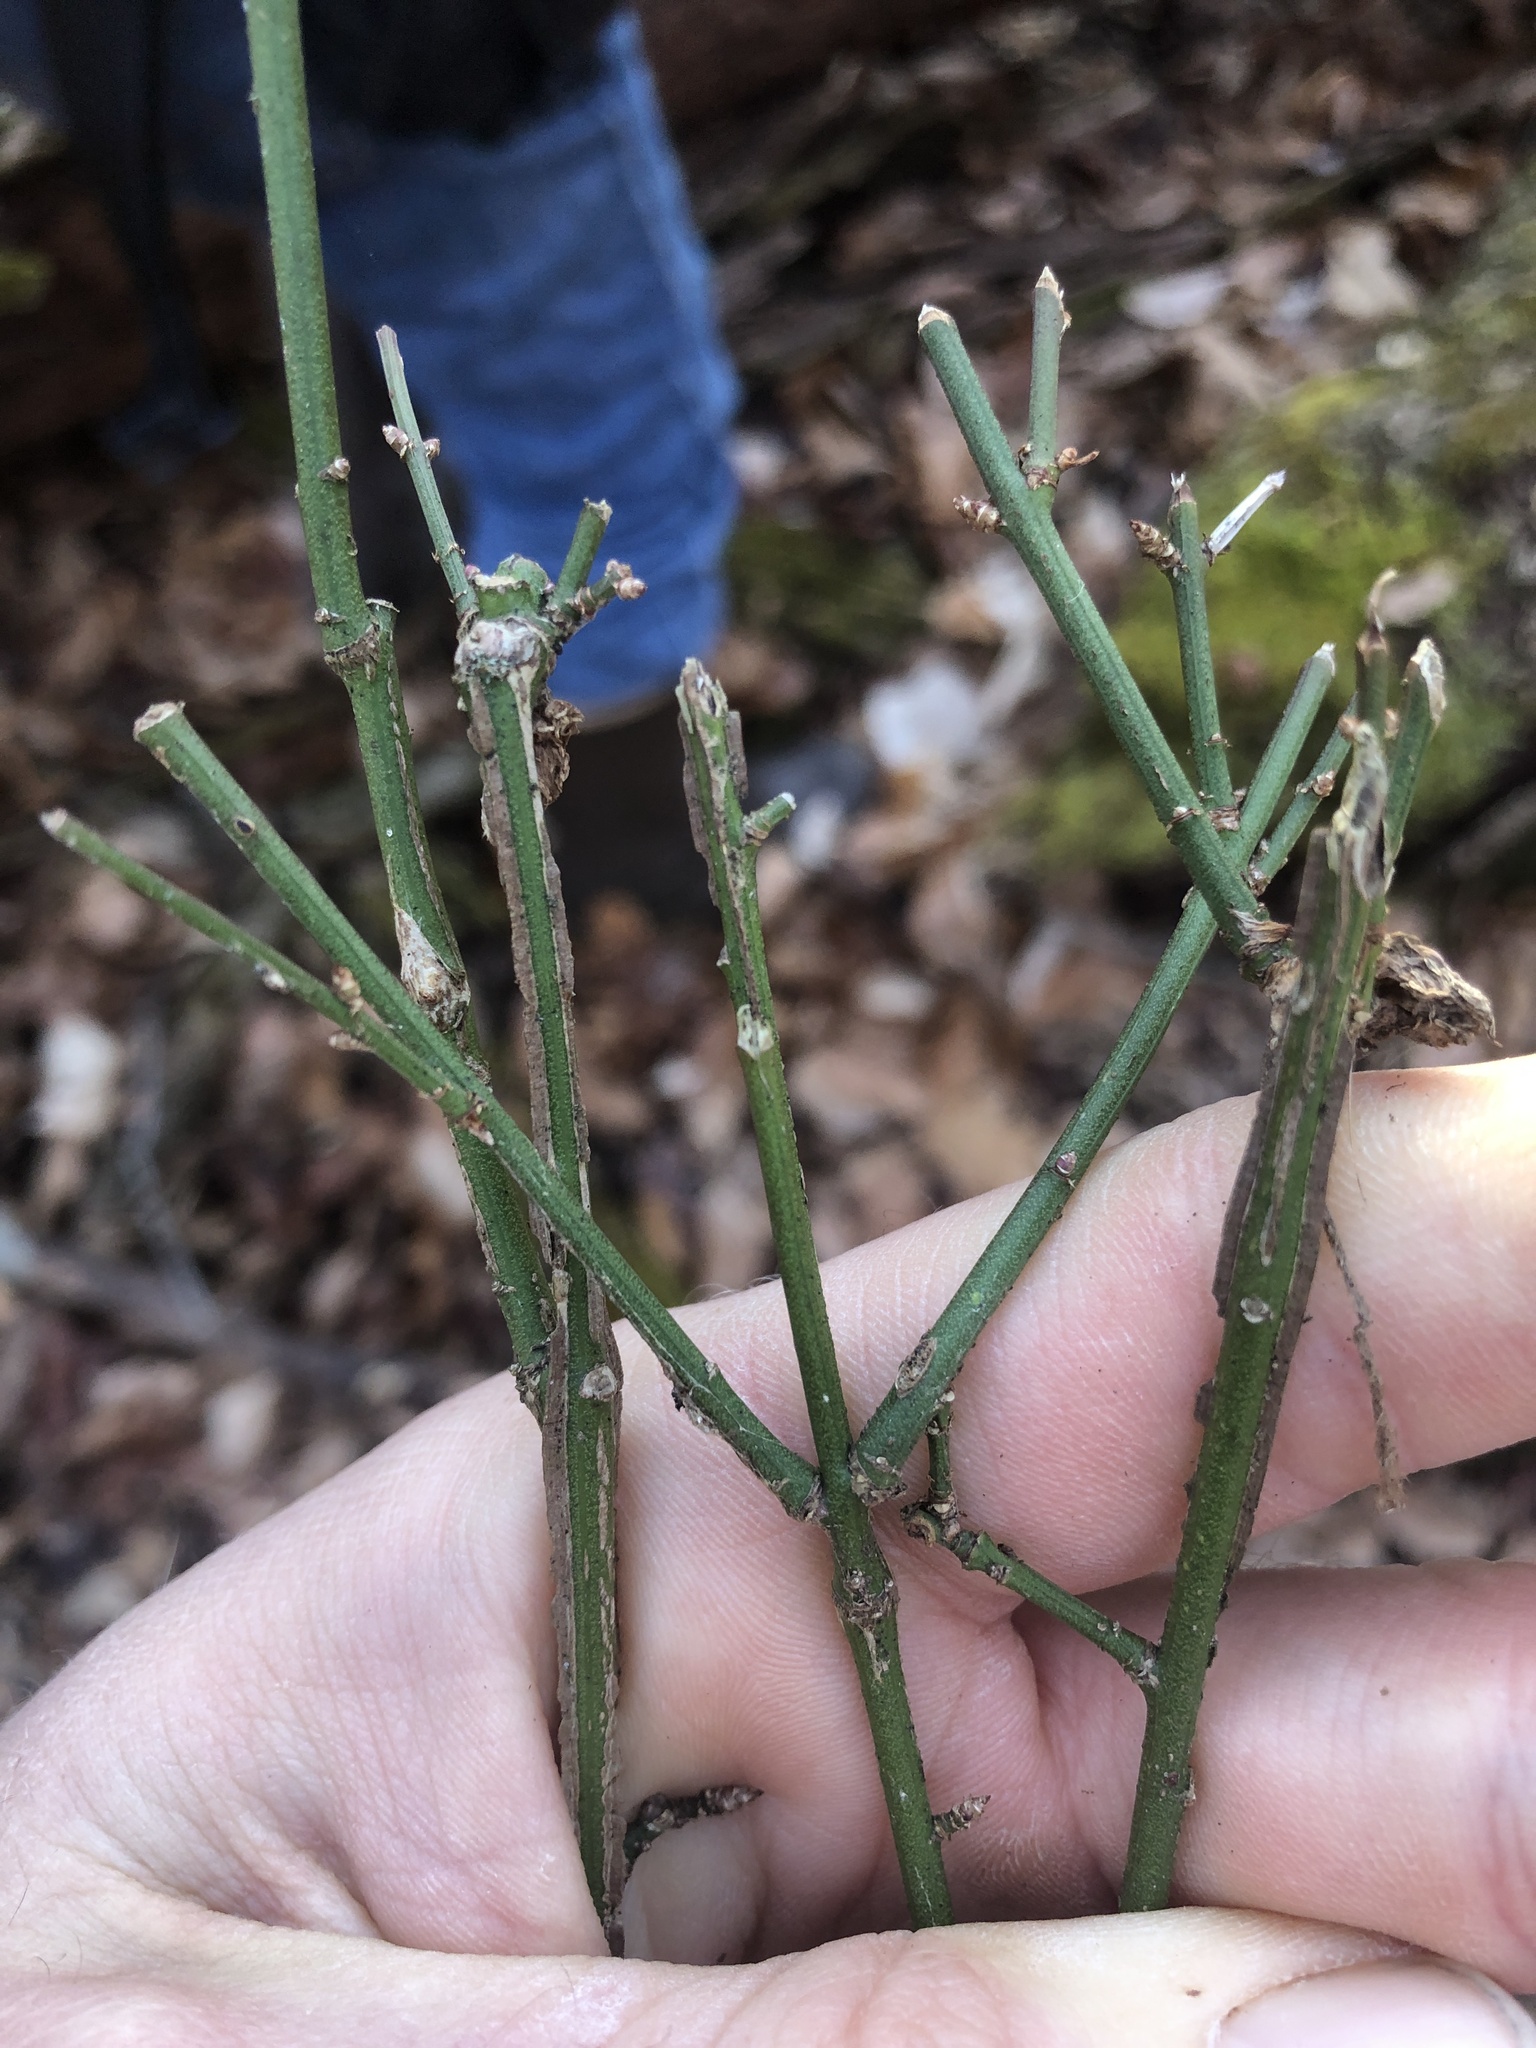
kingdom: Plantae
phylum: Tracheophyta
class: Magnoliopsida
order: Celastrales
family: Celastraceae
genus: Euonymus
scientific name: Euonymus alatus
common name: Winged euonymus
